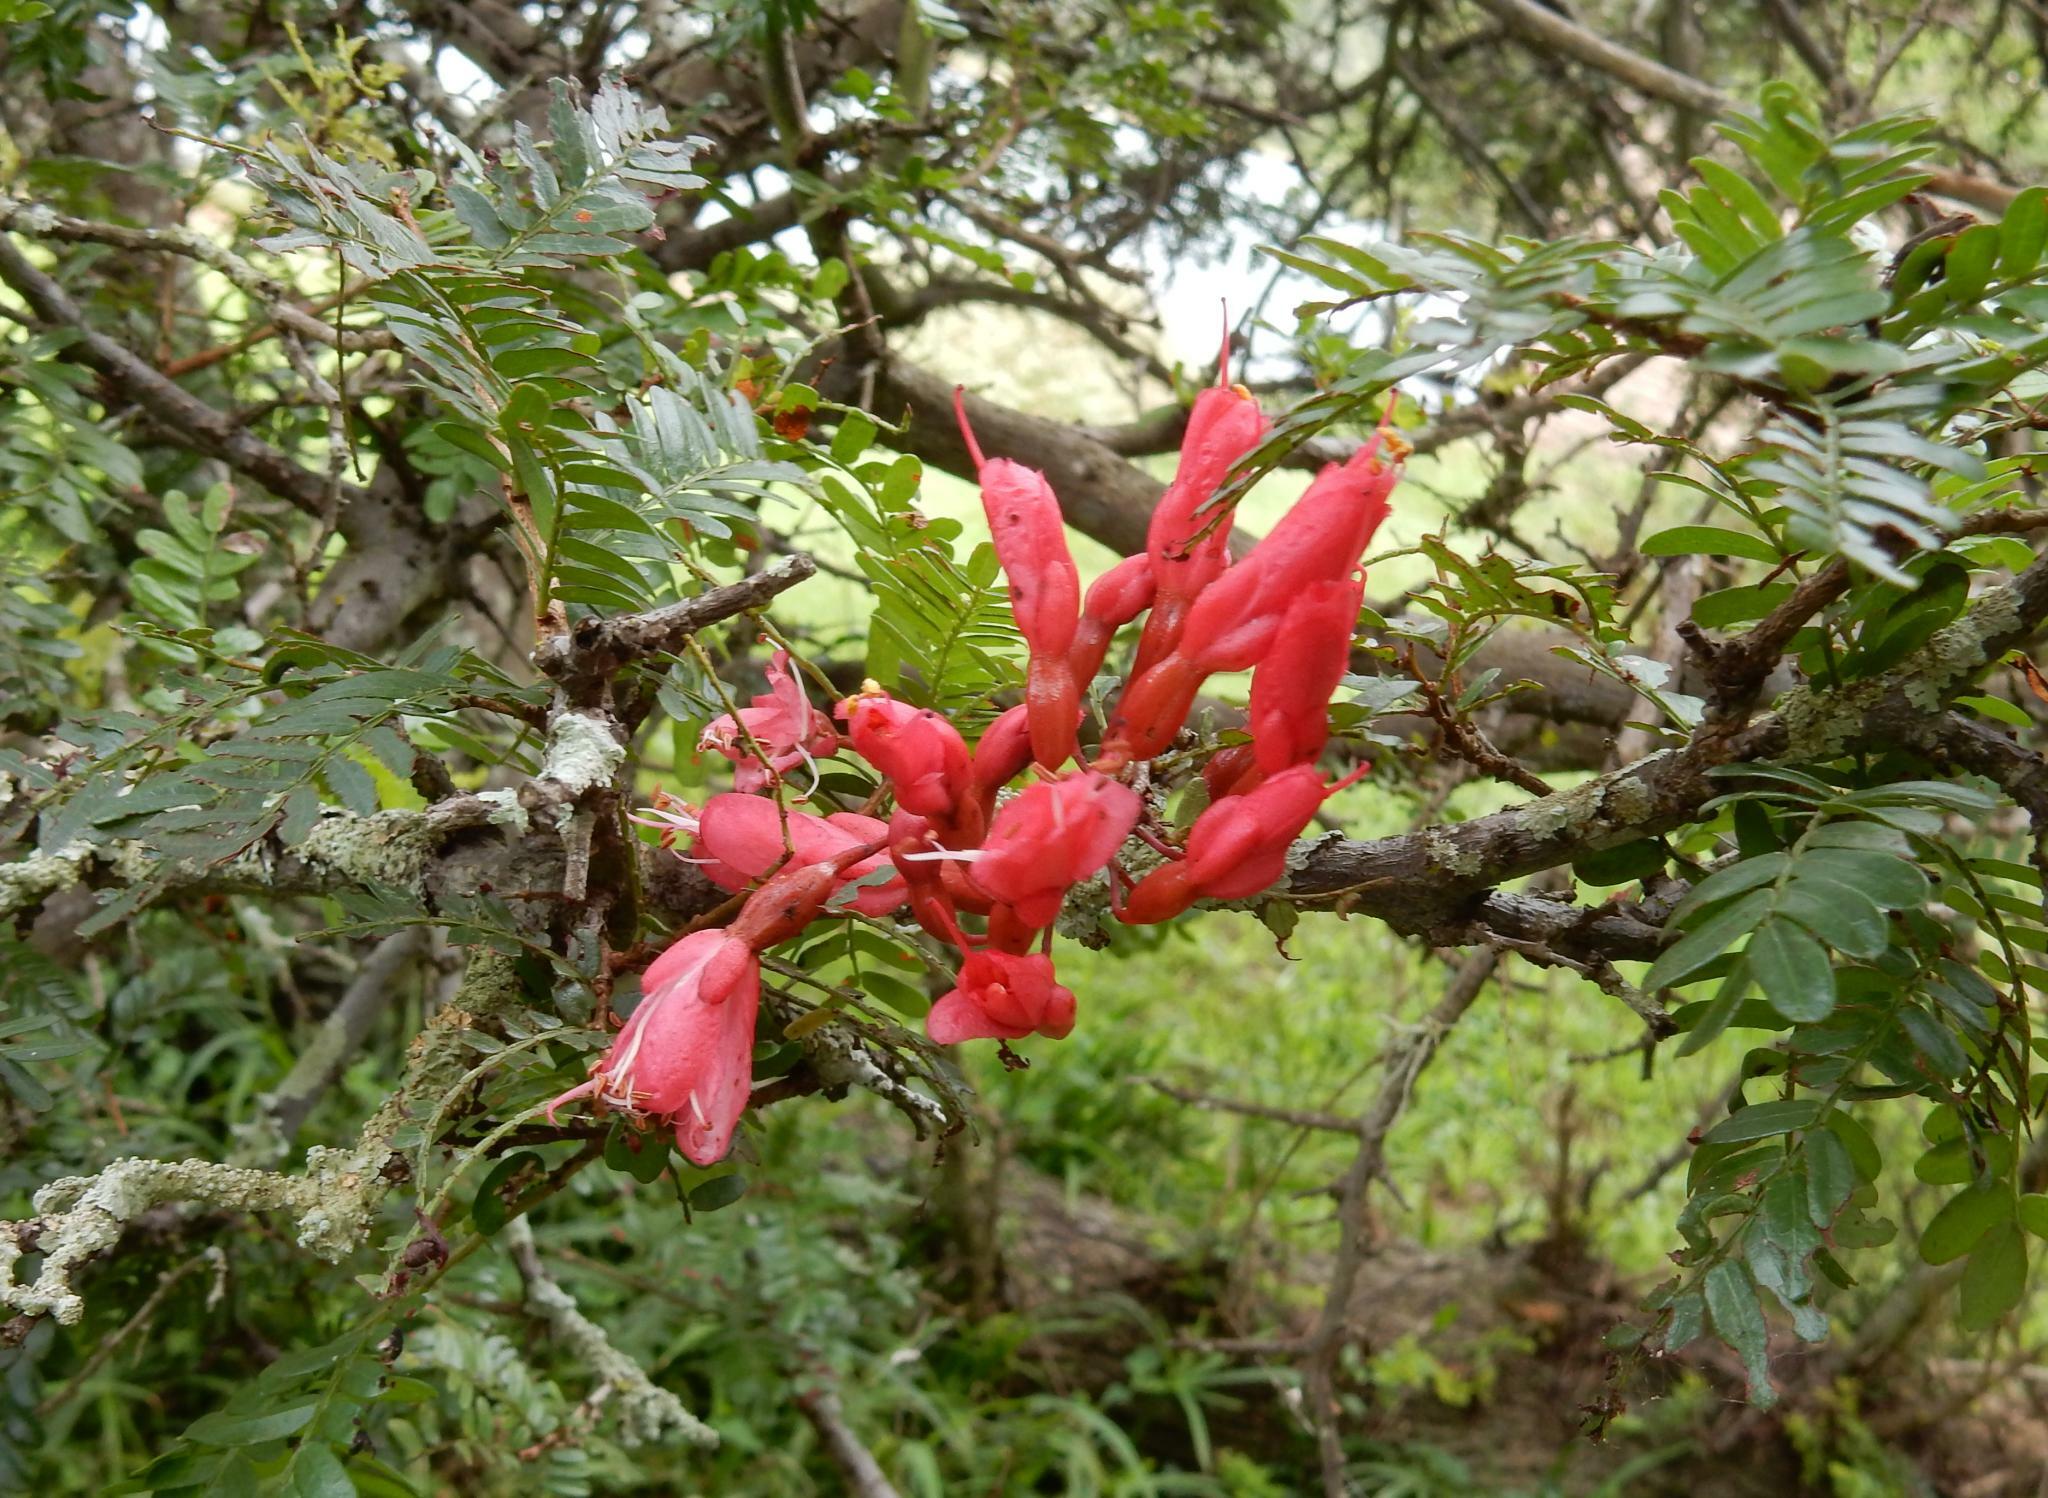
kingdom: Plantae
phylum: Tracheophyta
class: Magnoliopsida
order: Fabales
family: Fabaceae
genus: Schotia
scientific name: Schotia afra
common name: Hottentot's bean
